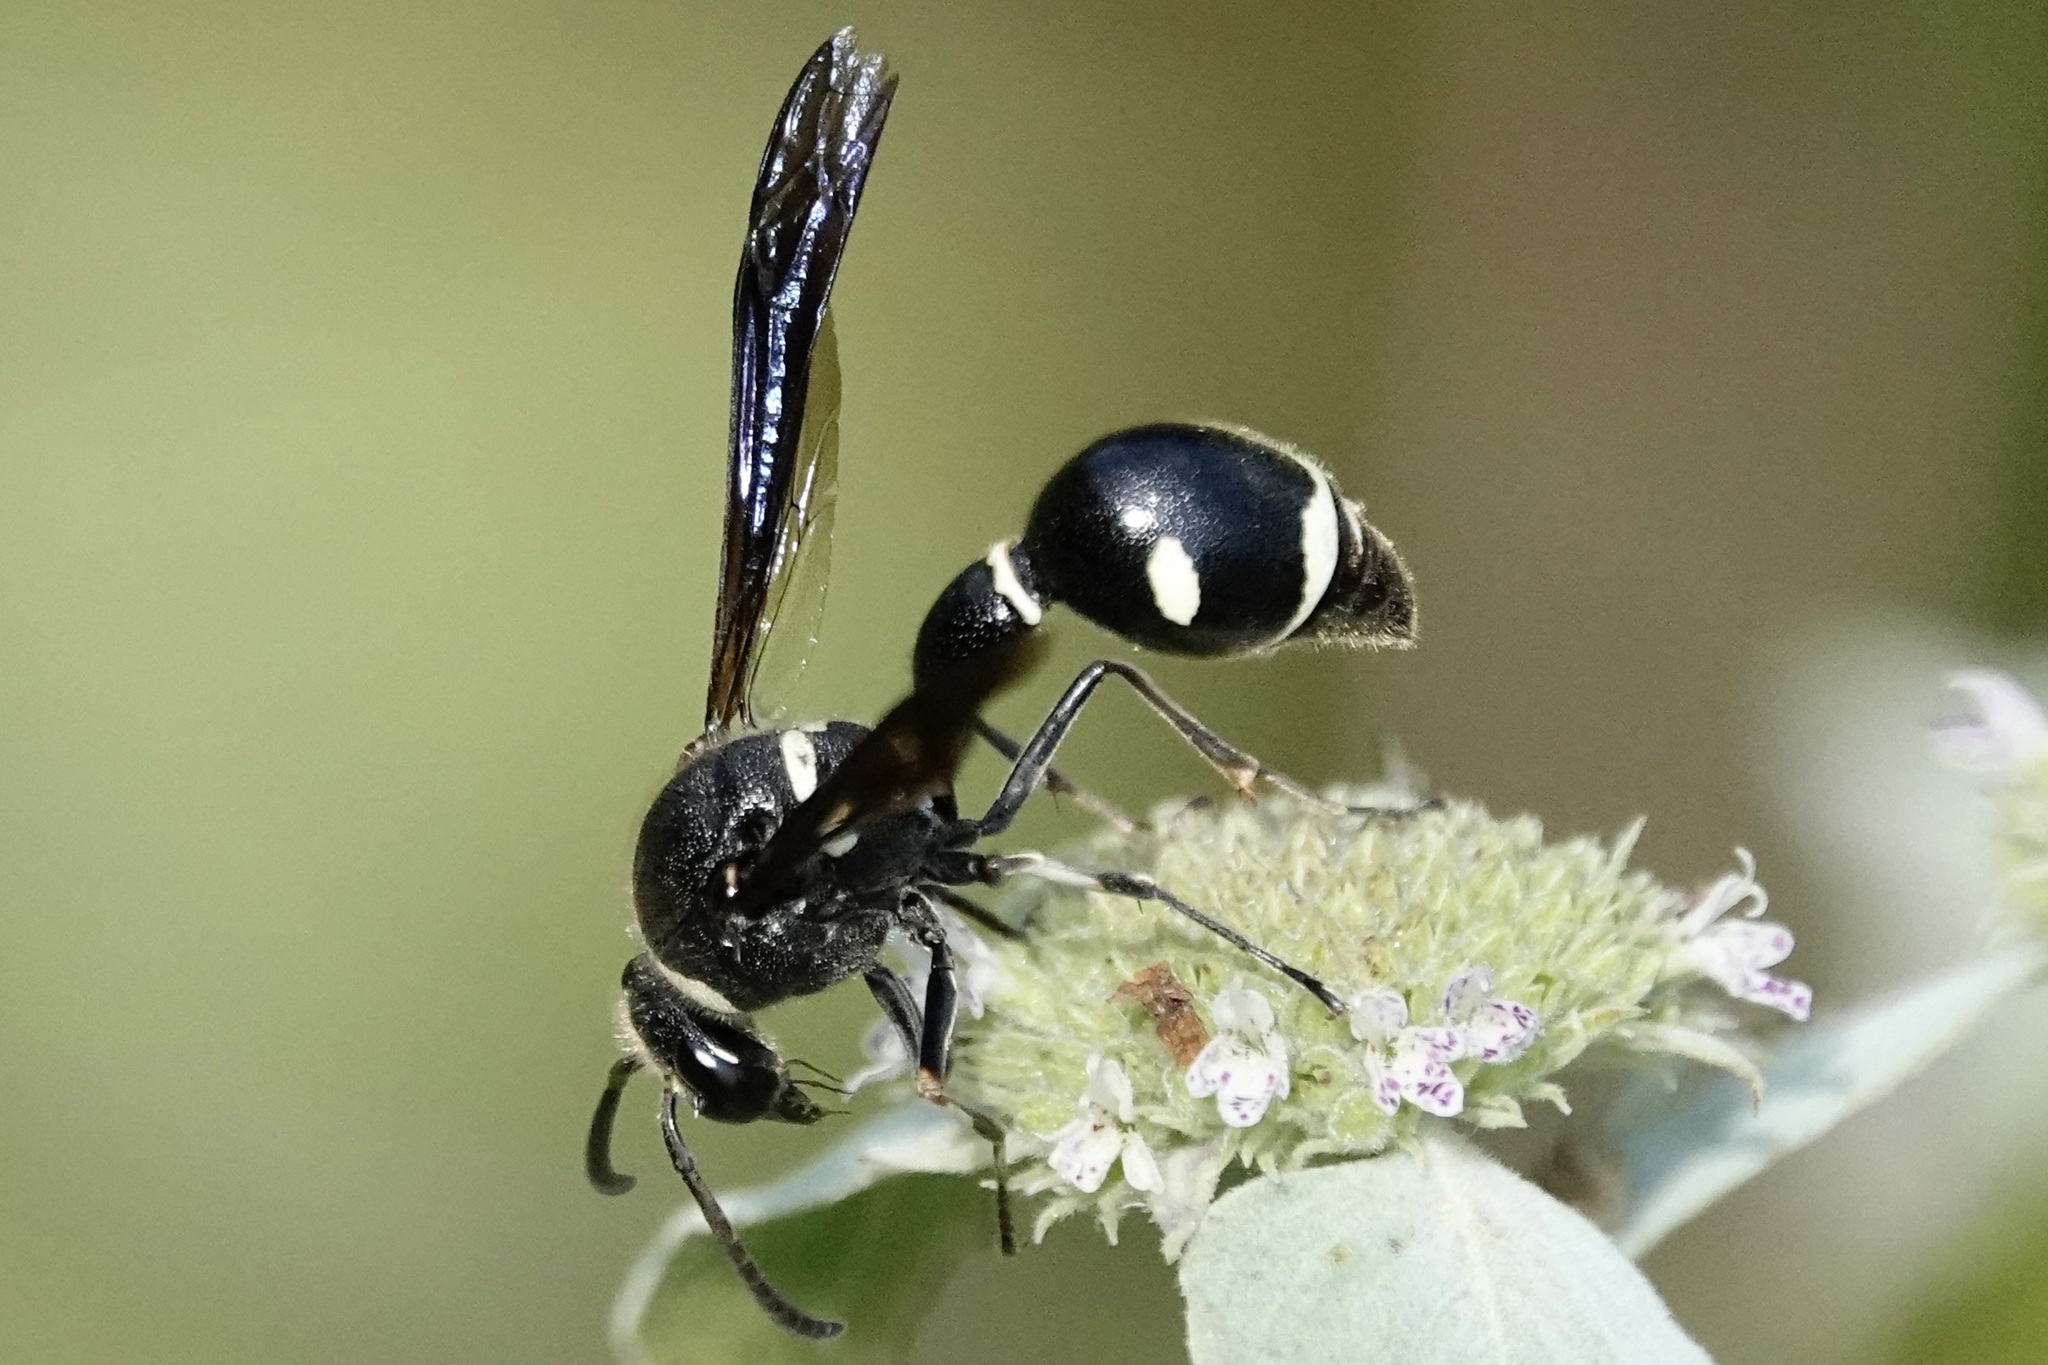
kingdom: Animalia
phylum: Arthropoda
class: Insecta
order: Hymenoptera
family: Vespidae
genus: Eumenes
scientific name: Eumenes fraternus
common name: Fraternal potter wasp
